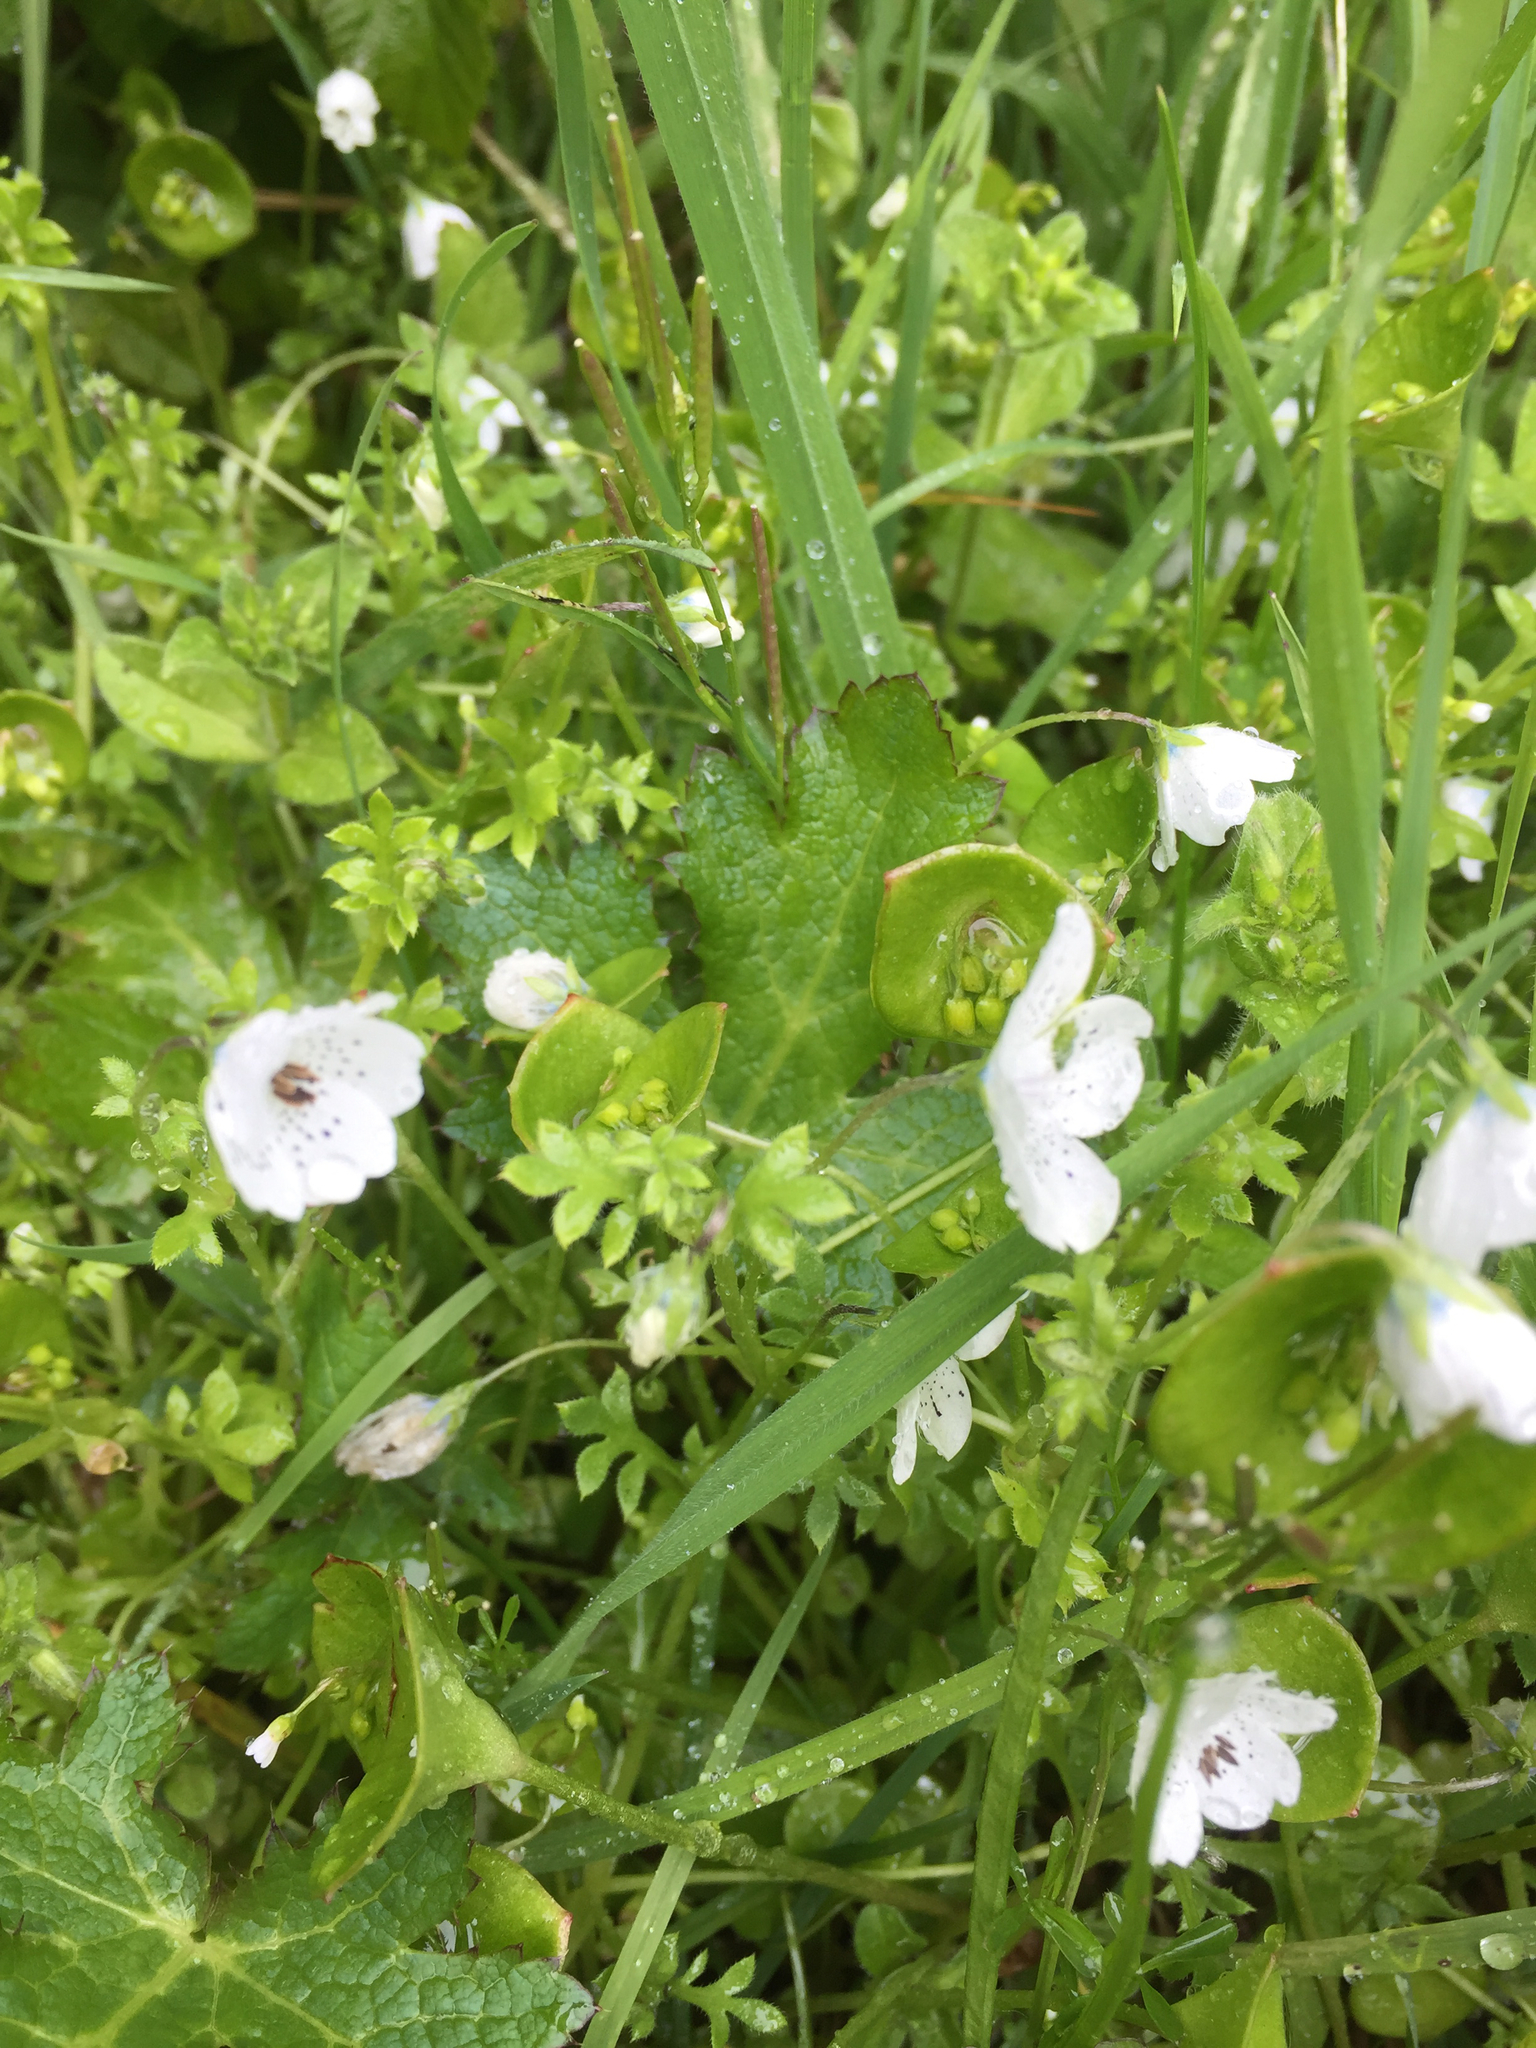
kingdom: Plantae
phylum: Tracheophyta
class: Magnoliopsida
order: Boraginales
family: Hydrophyllaceae
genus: Nemophila
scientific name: Nemophila menziesii
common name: Baby's-blue-eyes
